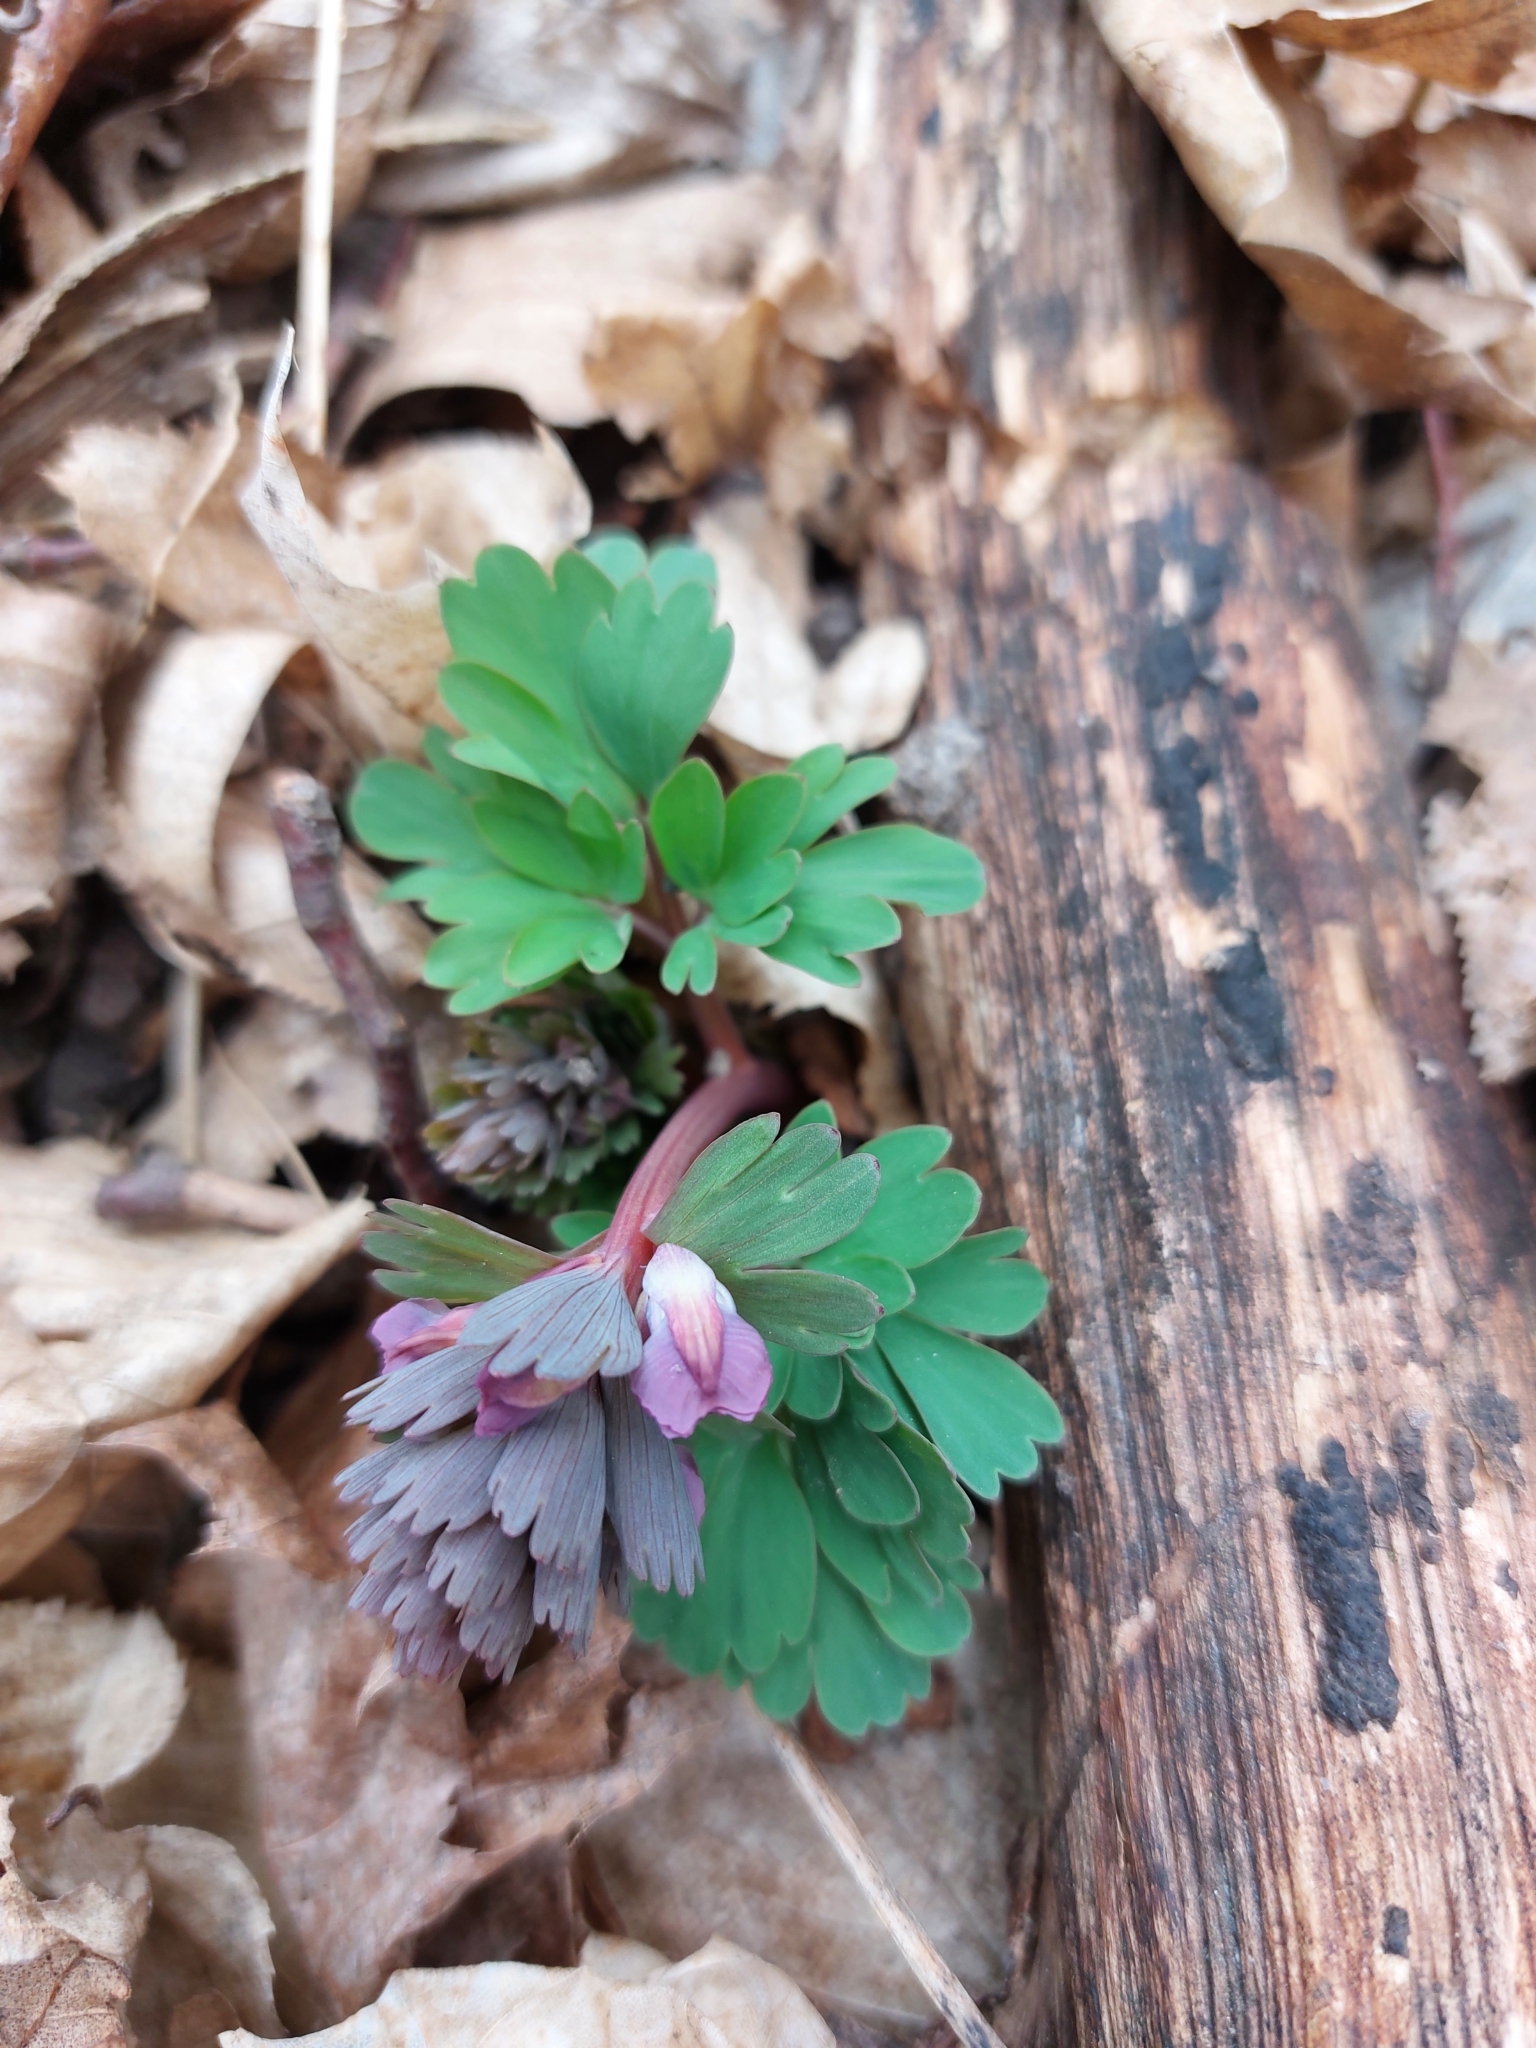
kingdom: Plantae
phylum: Tracheophyta
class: Magnoliopsida
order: Ranunculales
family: Papaveraceae
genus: Corydalis
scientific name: Corydalis solida
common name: Bird-in-a-bush
